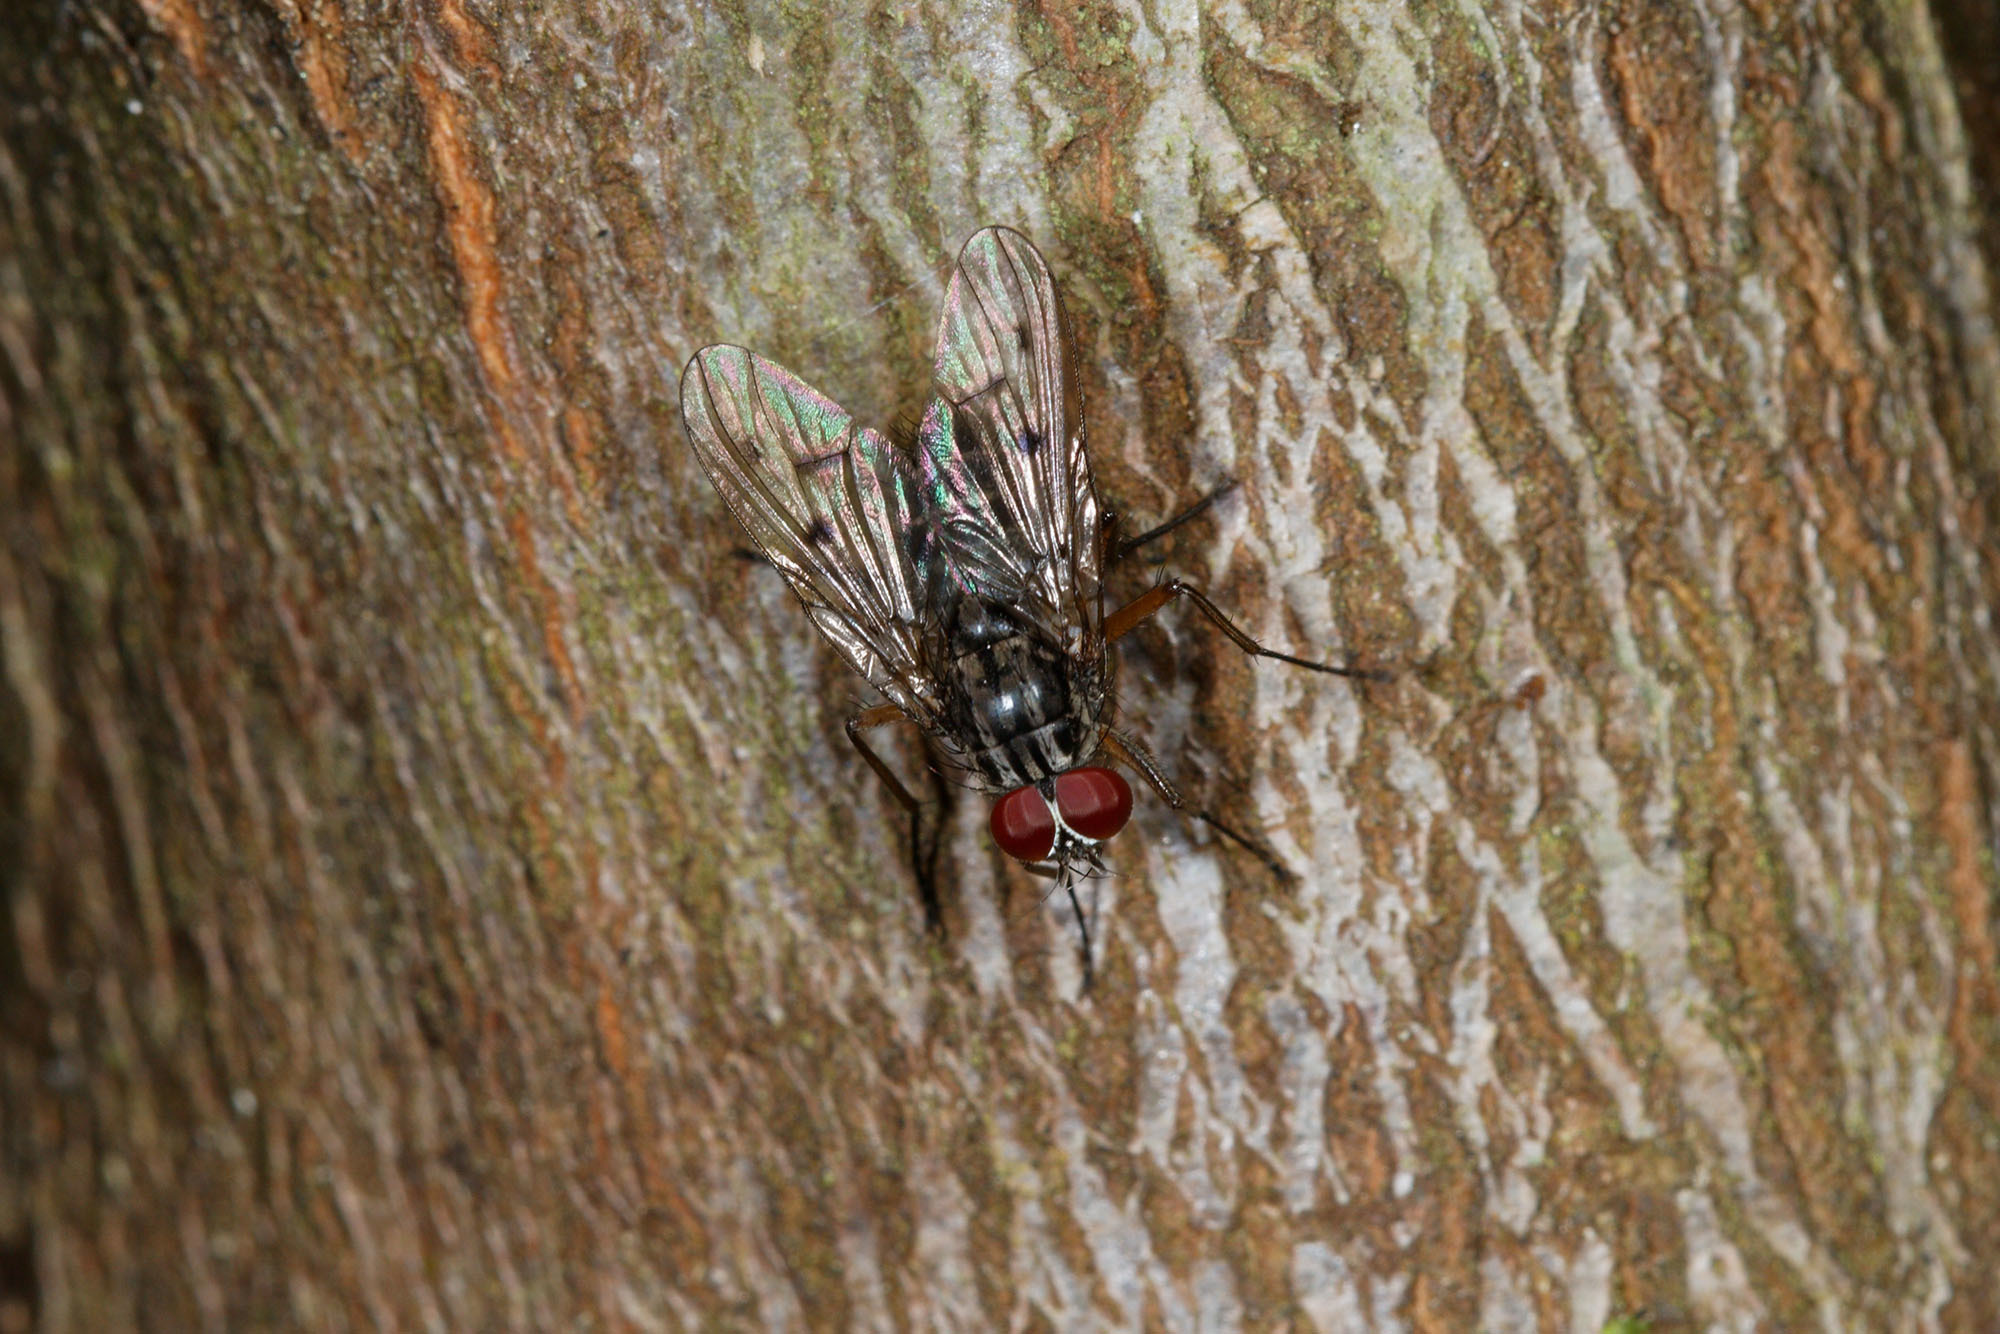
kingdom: Animalia
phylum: Arthropoda
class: Insecta
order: Diptera
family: Muscidae
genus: Helina
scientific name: Helina collessi
